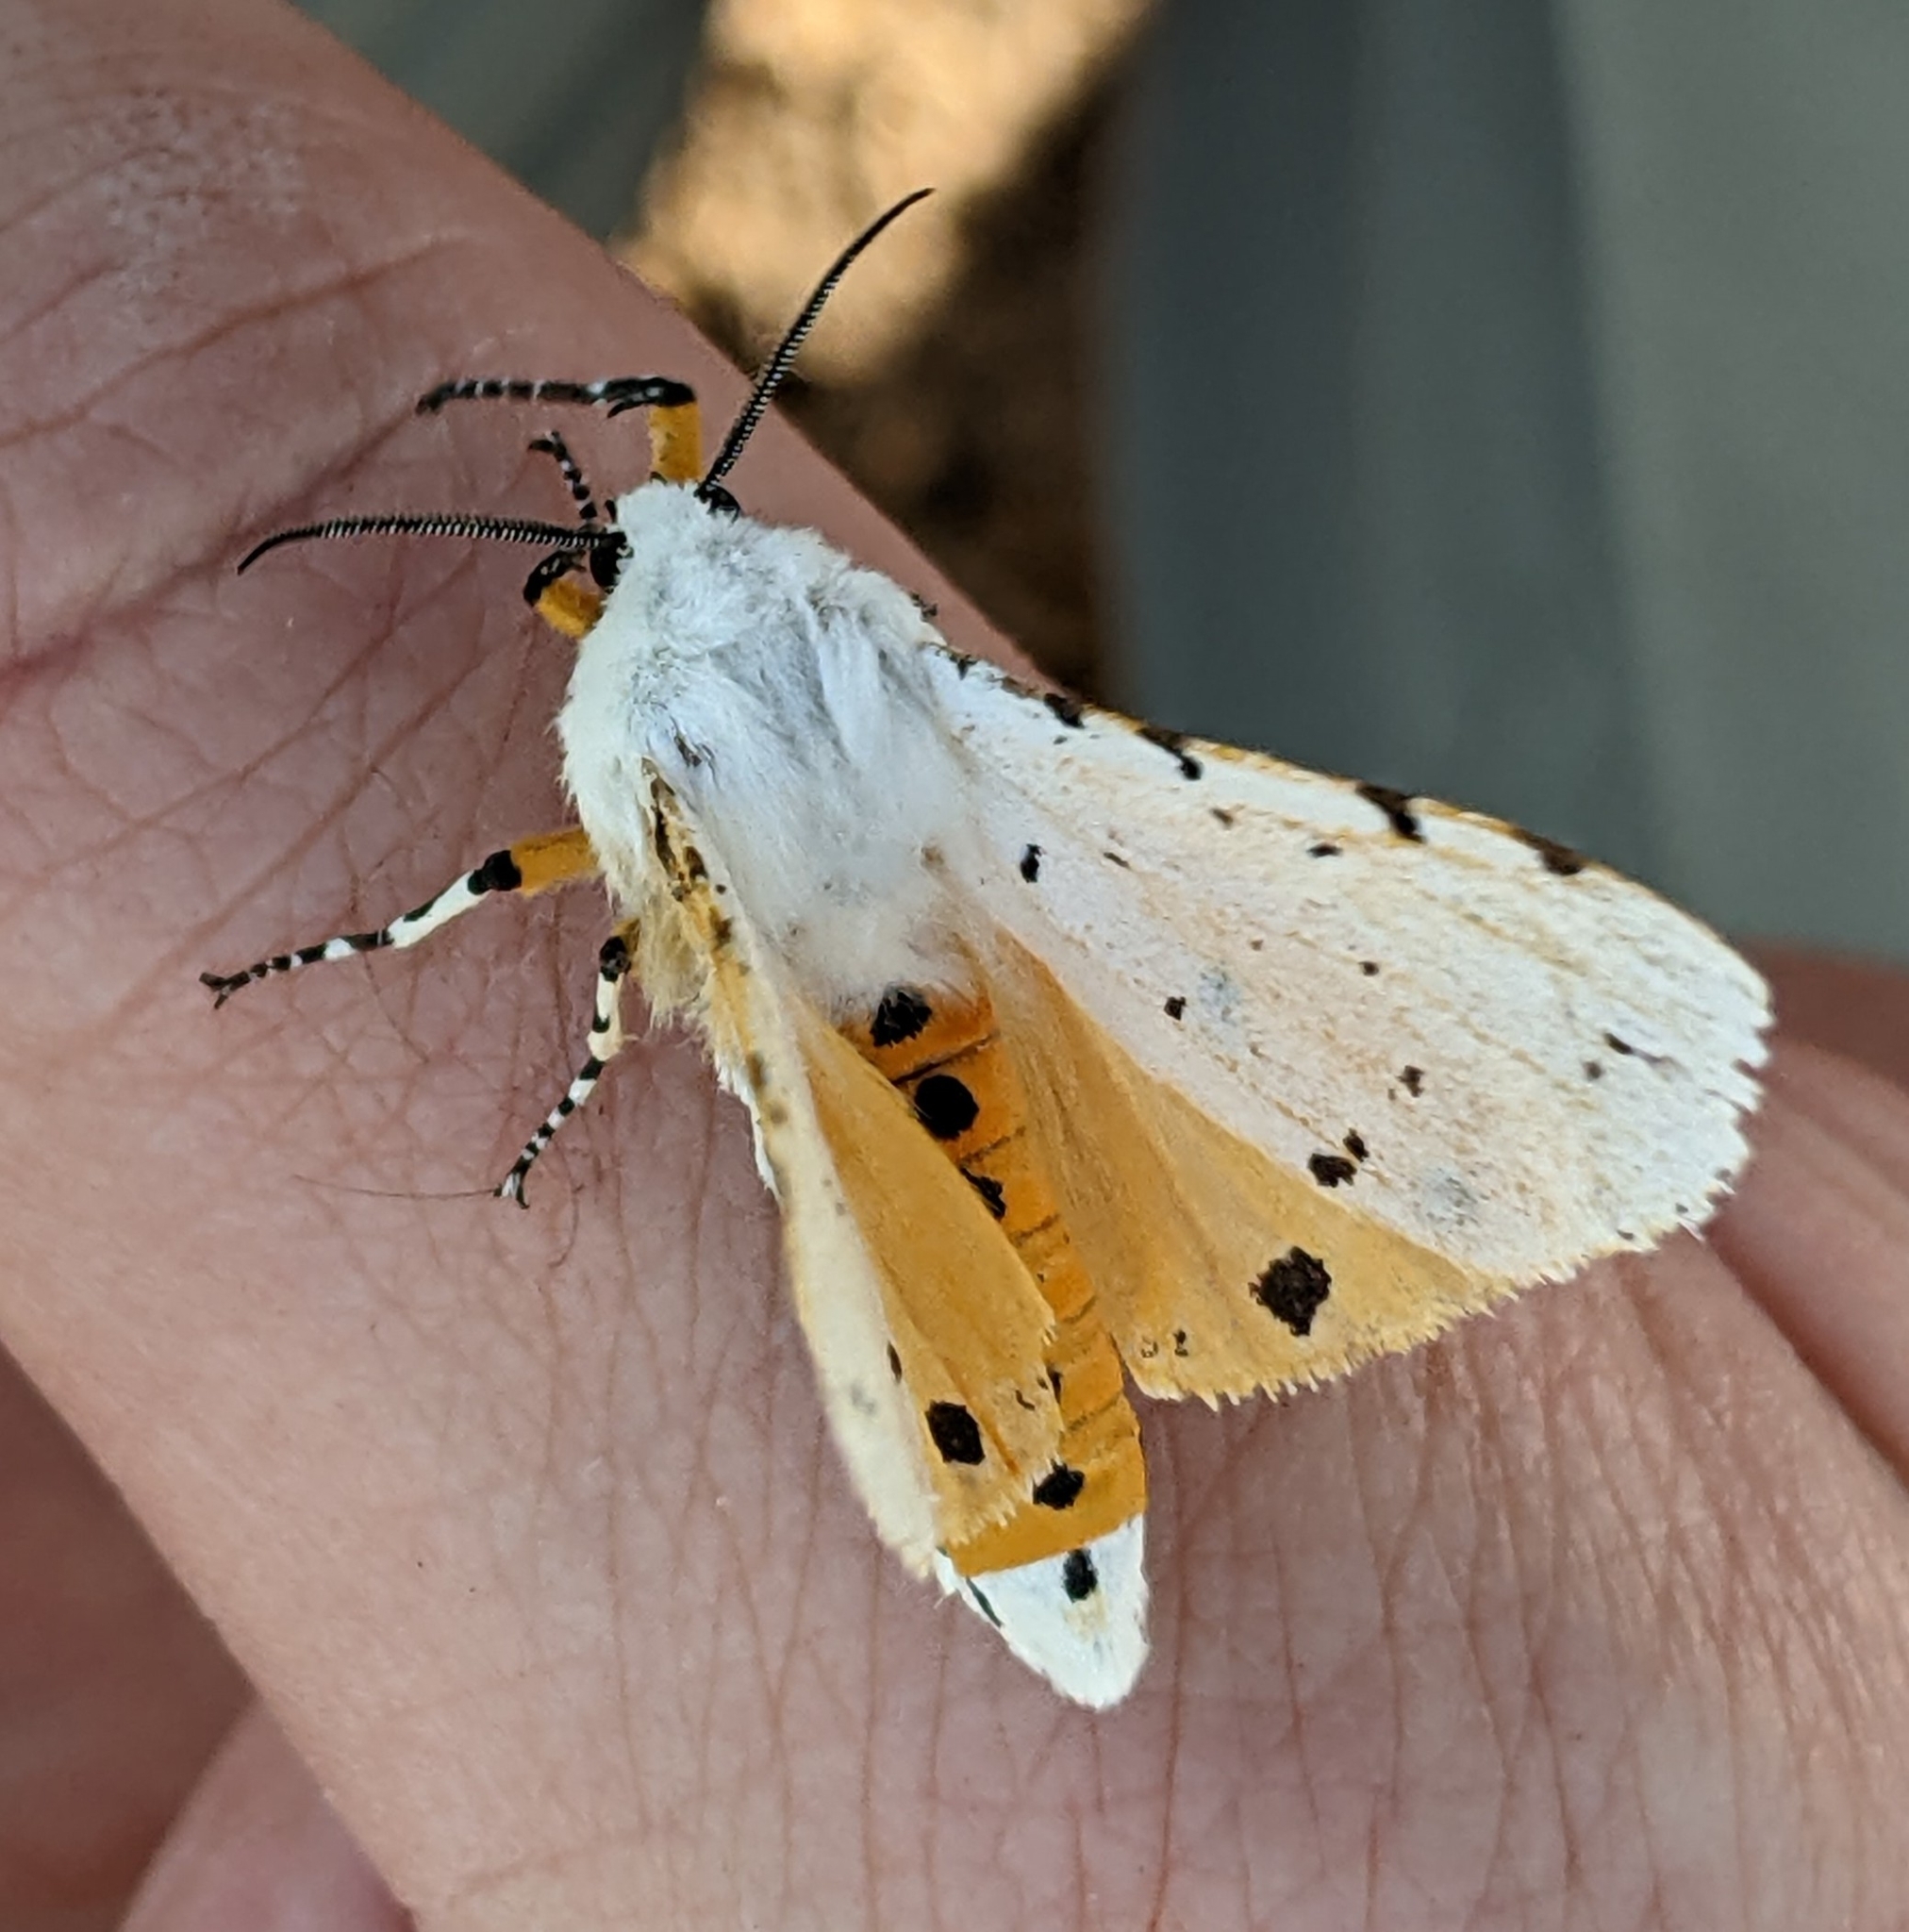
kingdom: Animalia
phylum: Arthropoda
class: Insecta
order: Lepidoptera
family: Erebidae
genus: Estigmene
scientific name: Estigmene acrea
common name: Salt marsh moth
